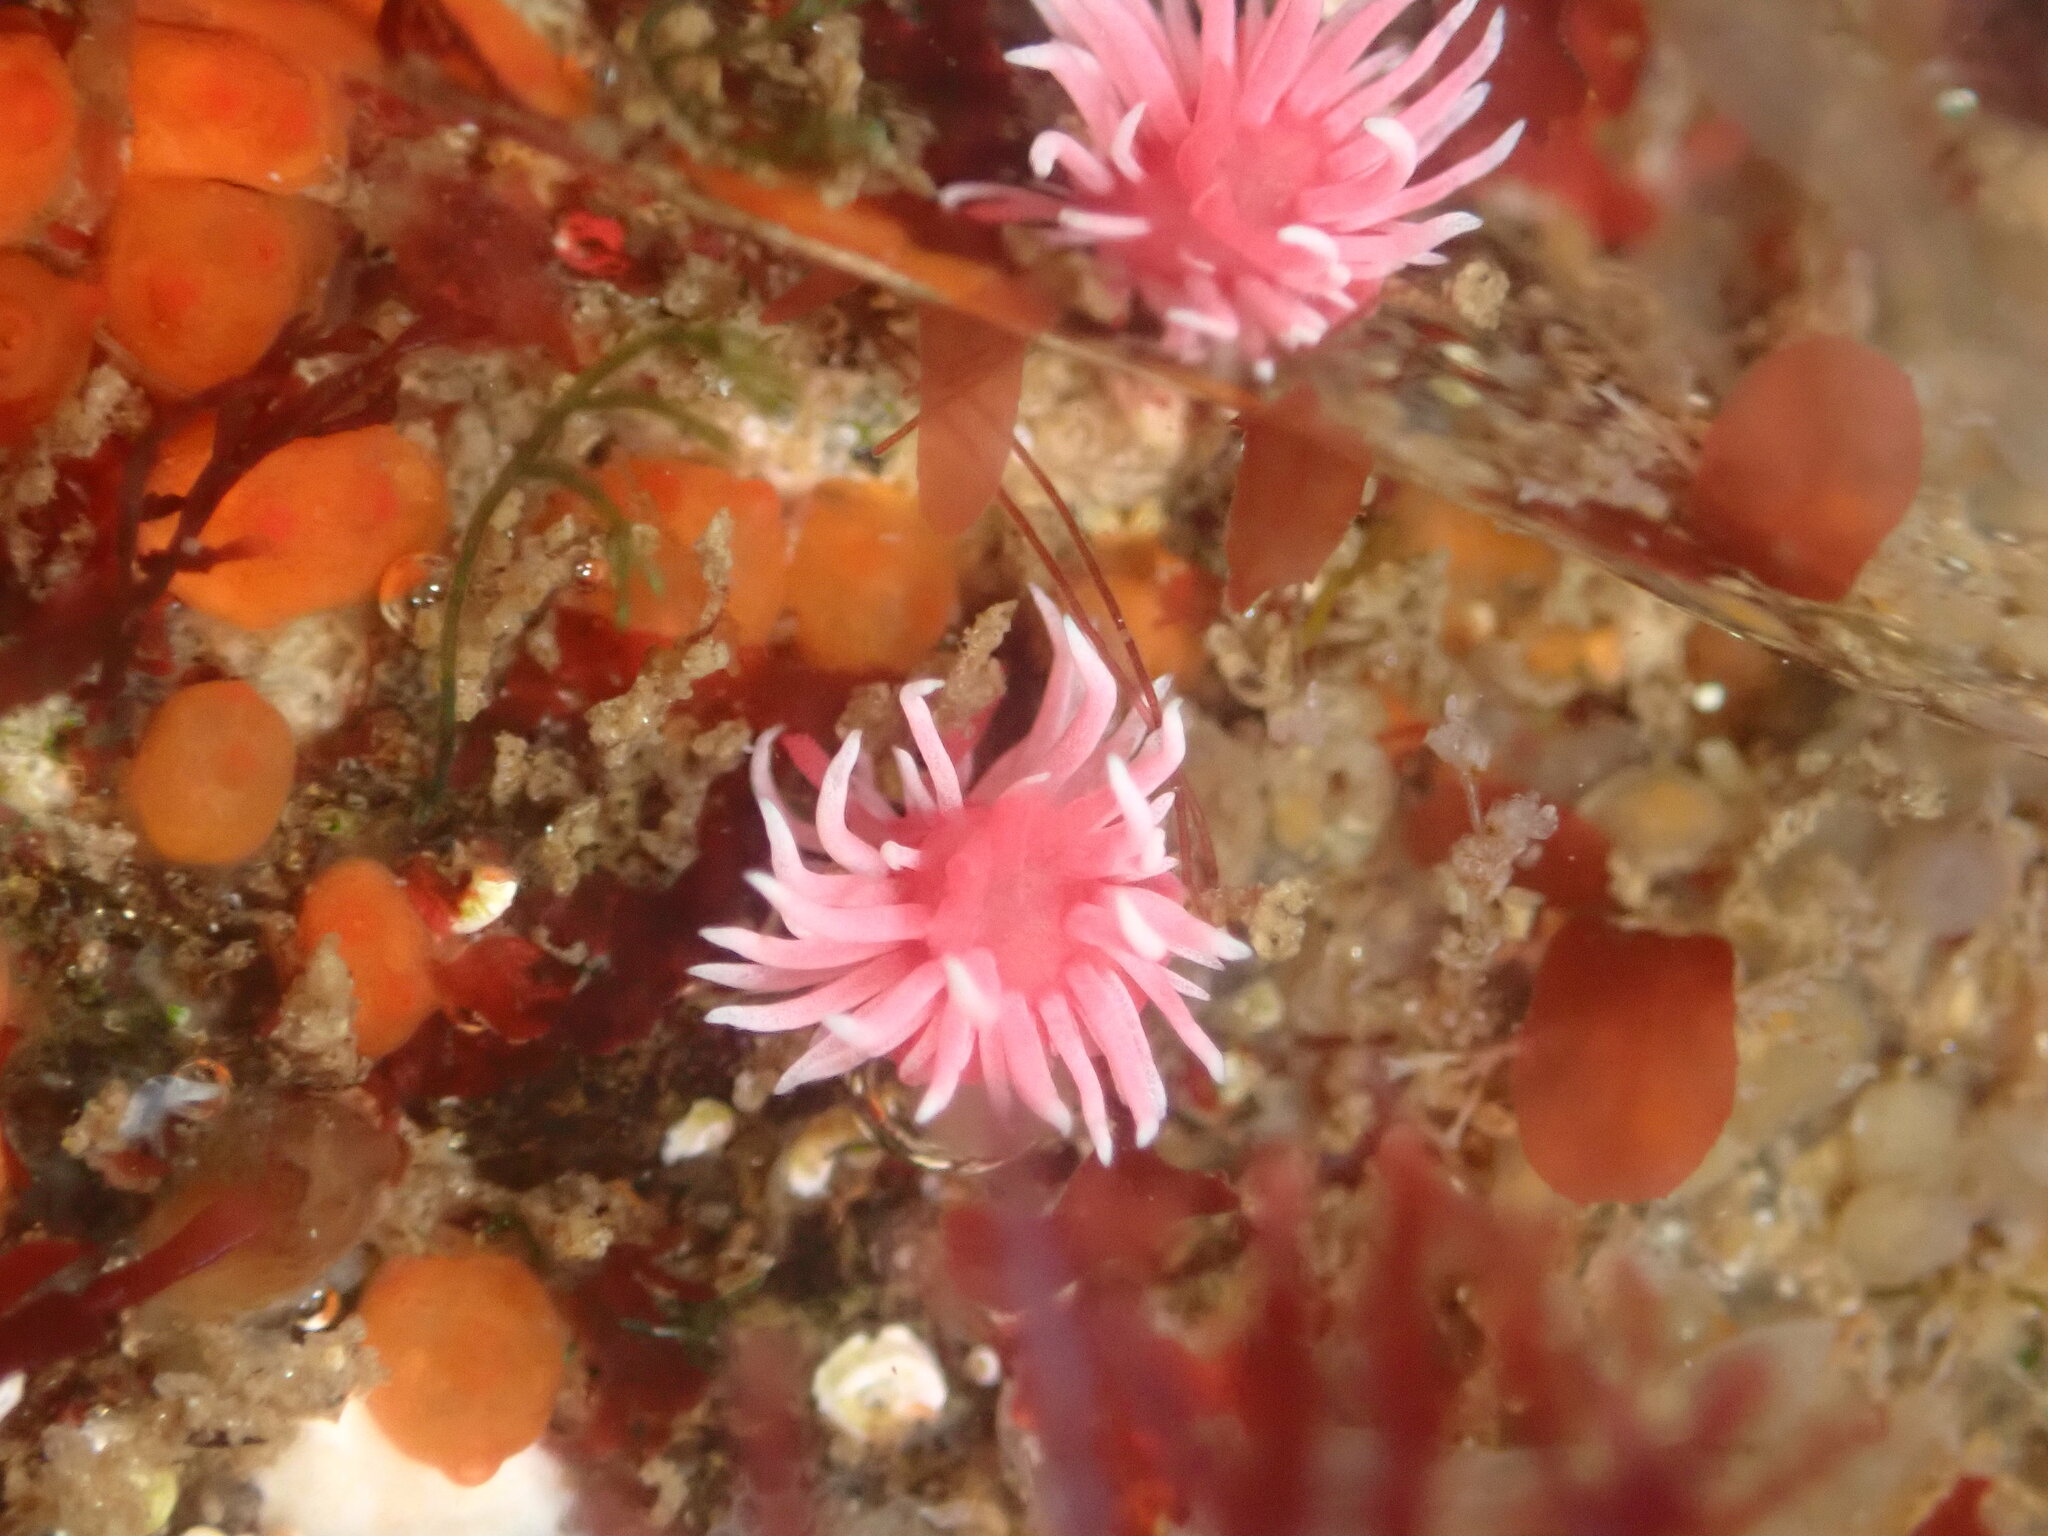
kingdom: Animalia
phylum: Mollusca
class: Gastropoda
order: Nudibranchia
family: Goniodorididae
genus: Okenia
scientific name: Okenia
